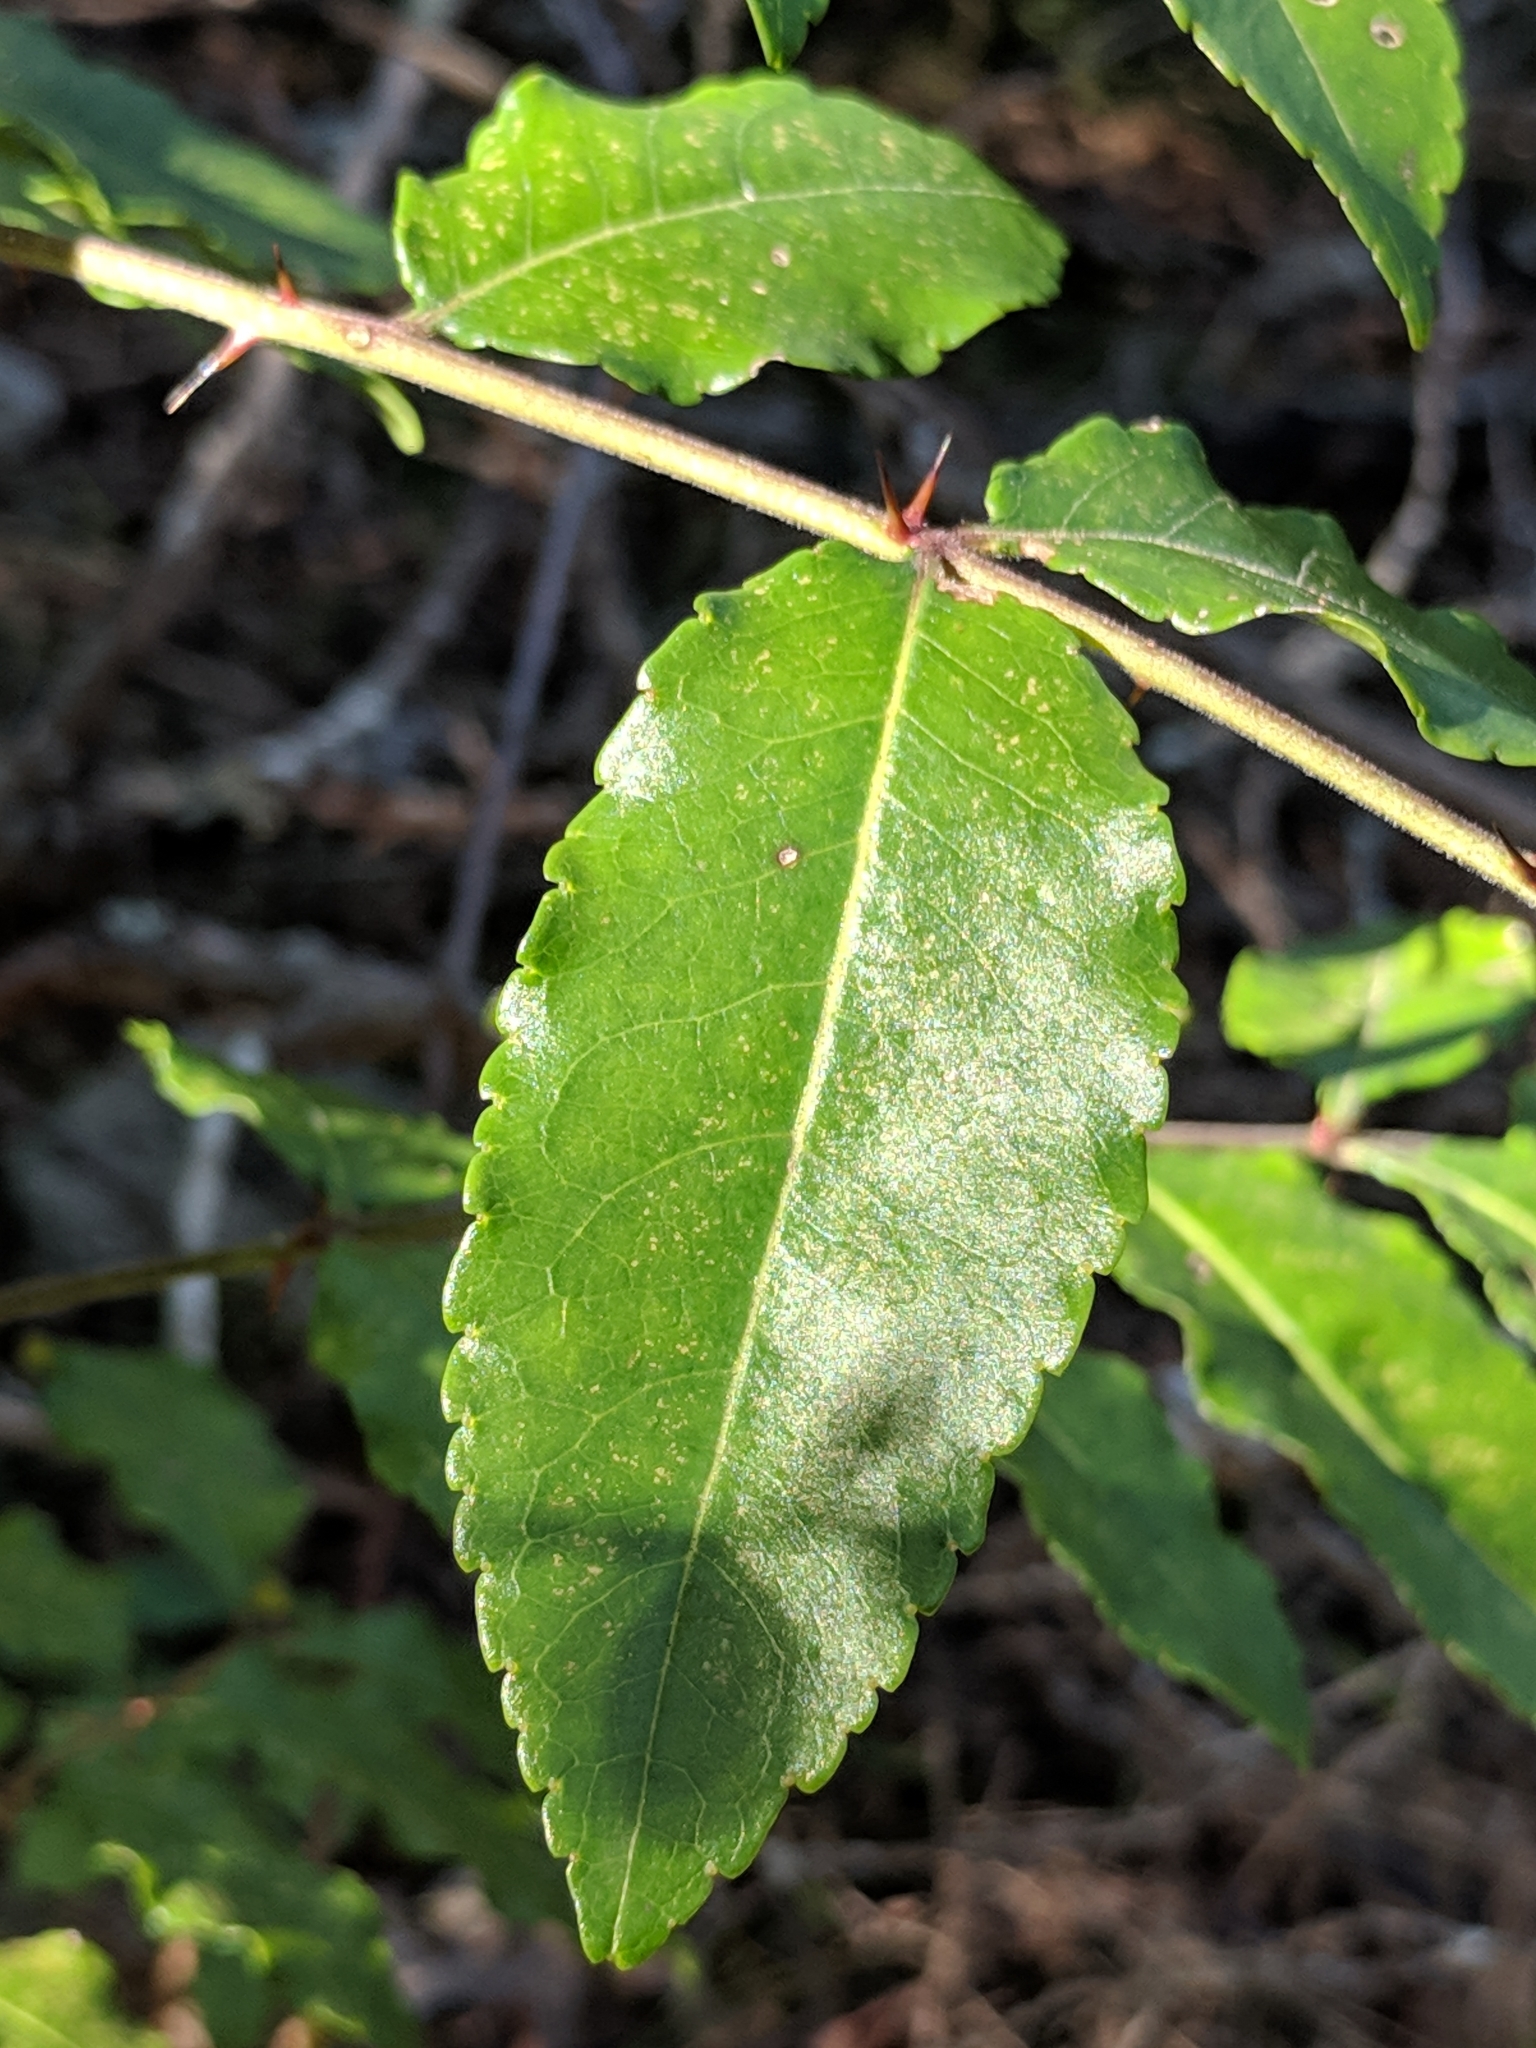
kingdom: Plantae
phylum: Tracheophyta
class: Magnoliopsida
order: Sapindales
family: Rutaceae
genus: Zanthoxylum
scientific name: Zanthoxylum clava-herculis
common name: Hercules'-club
